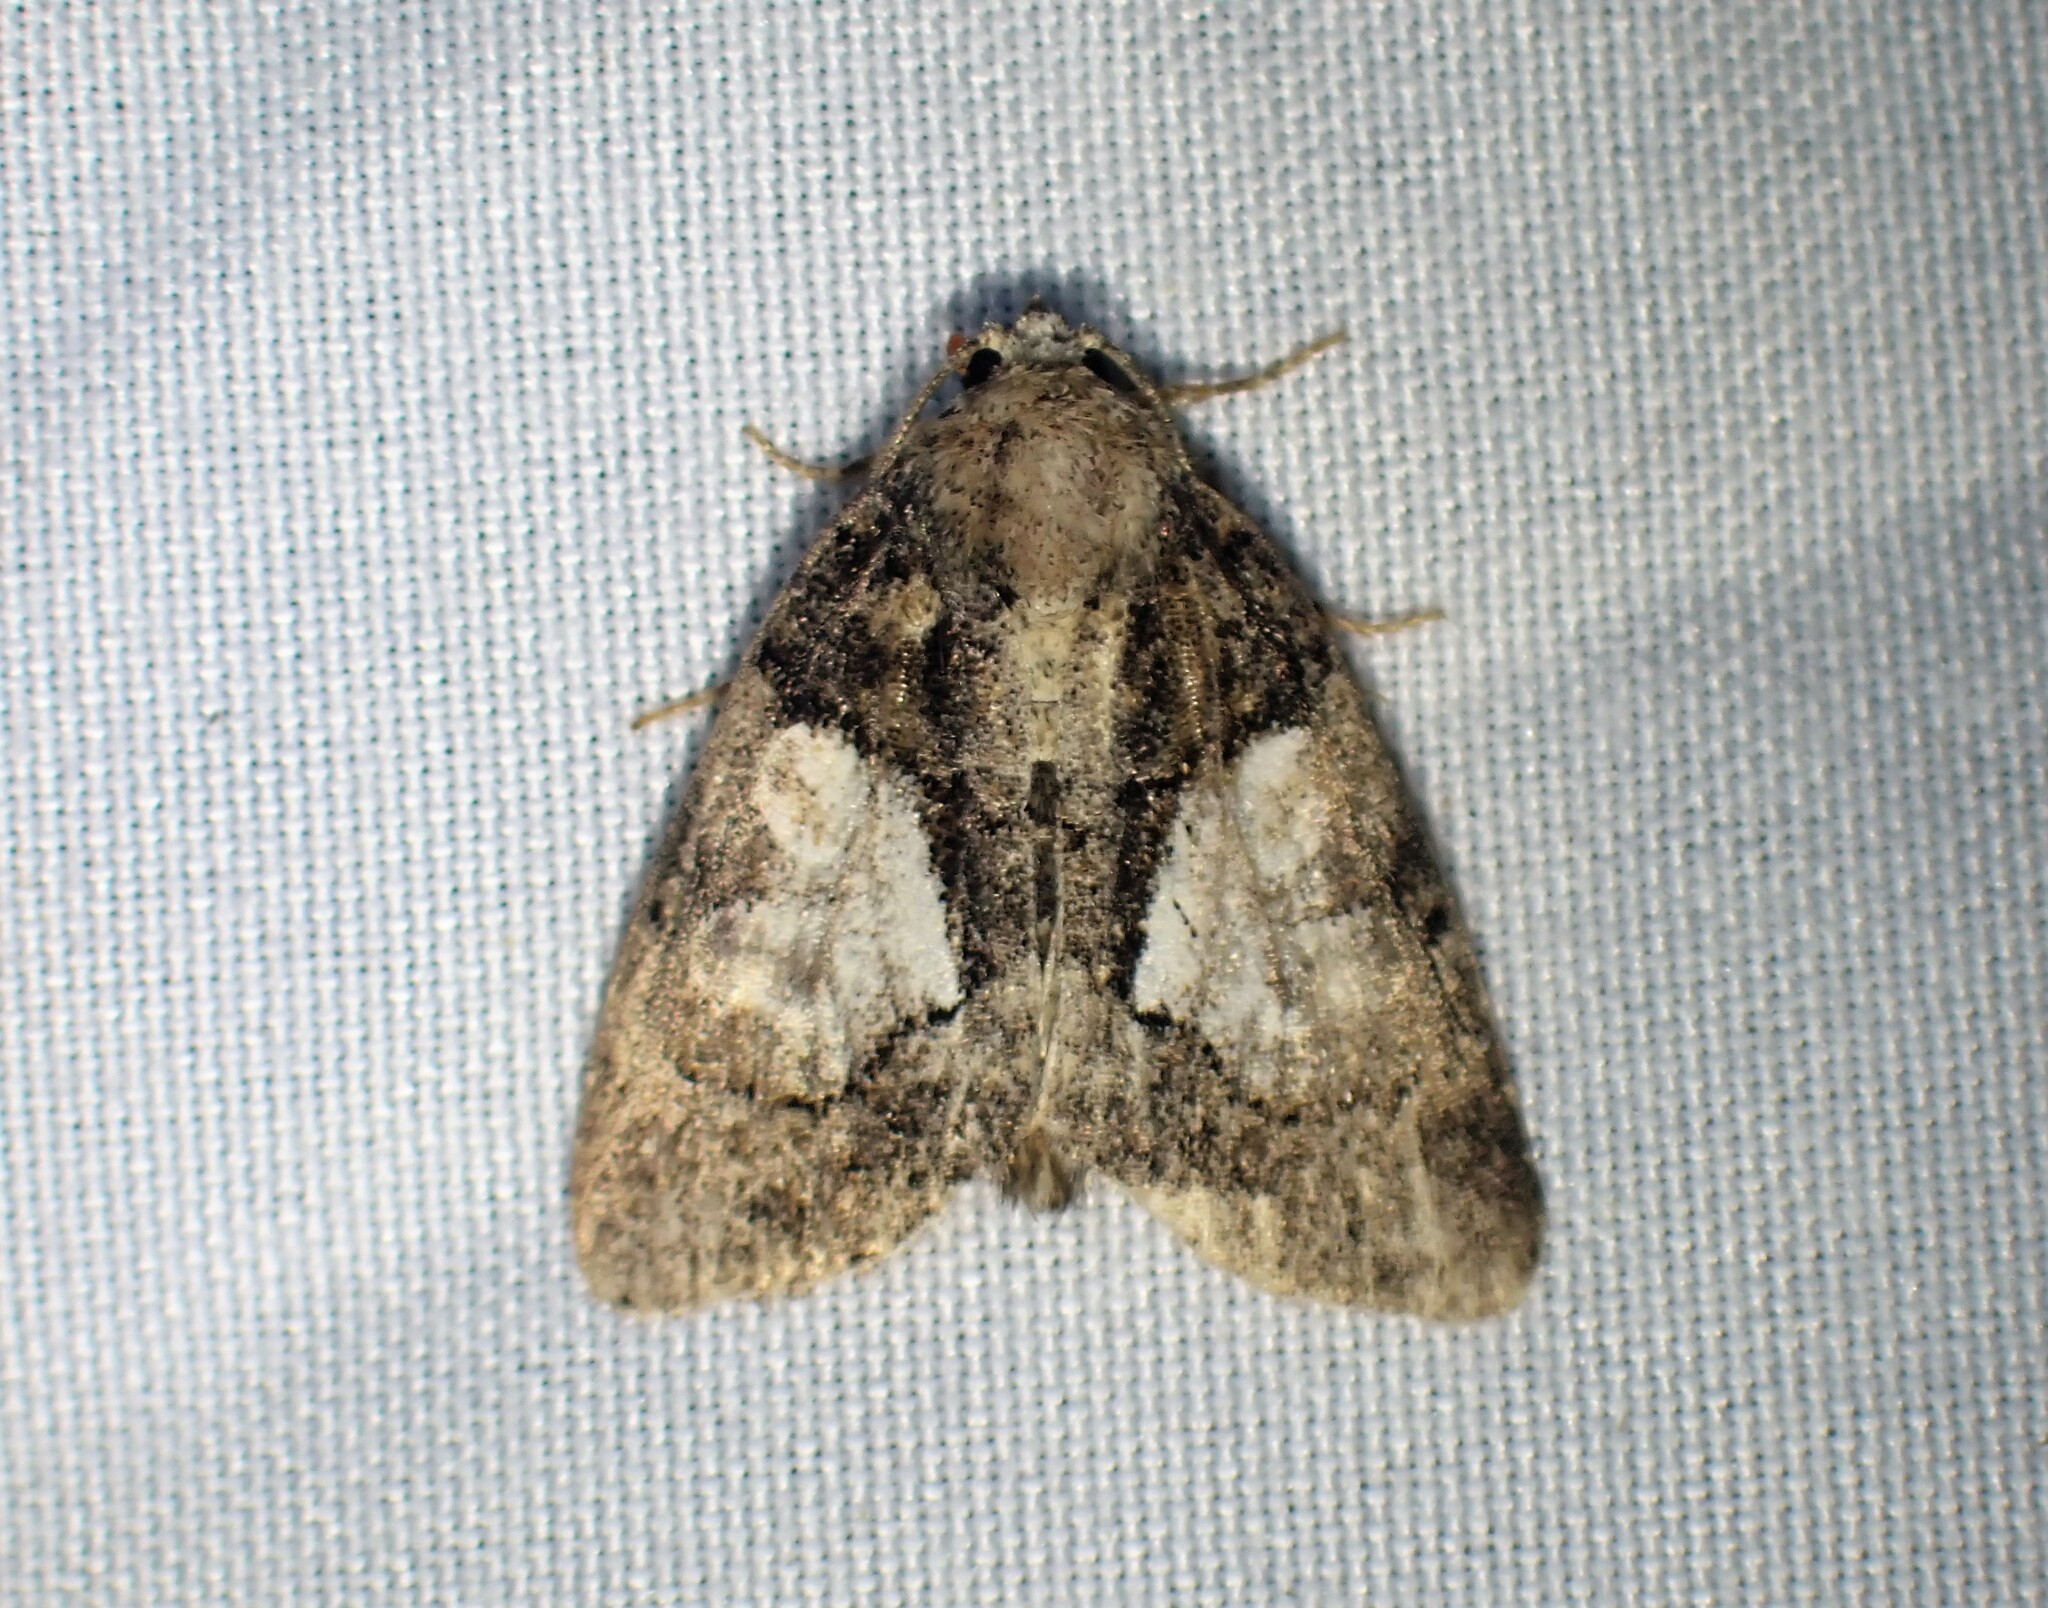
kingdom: Animalia
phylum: Arthropoda
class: Insecta
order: Lepidoptera
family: Noctuidae
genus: Chytonix
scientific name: Chytonix palliatricula
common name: Cloaked marvel
